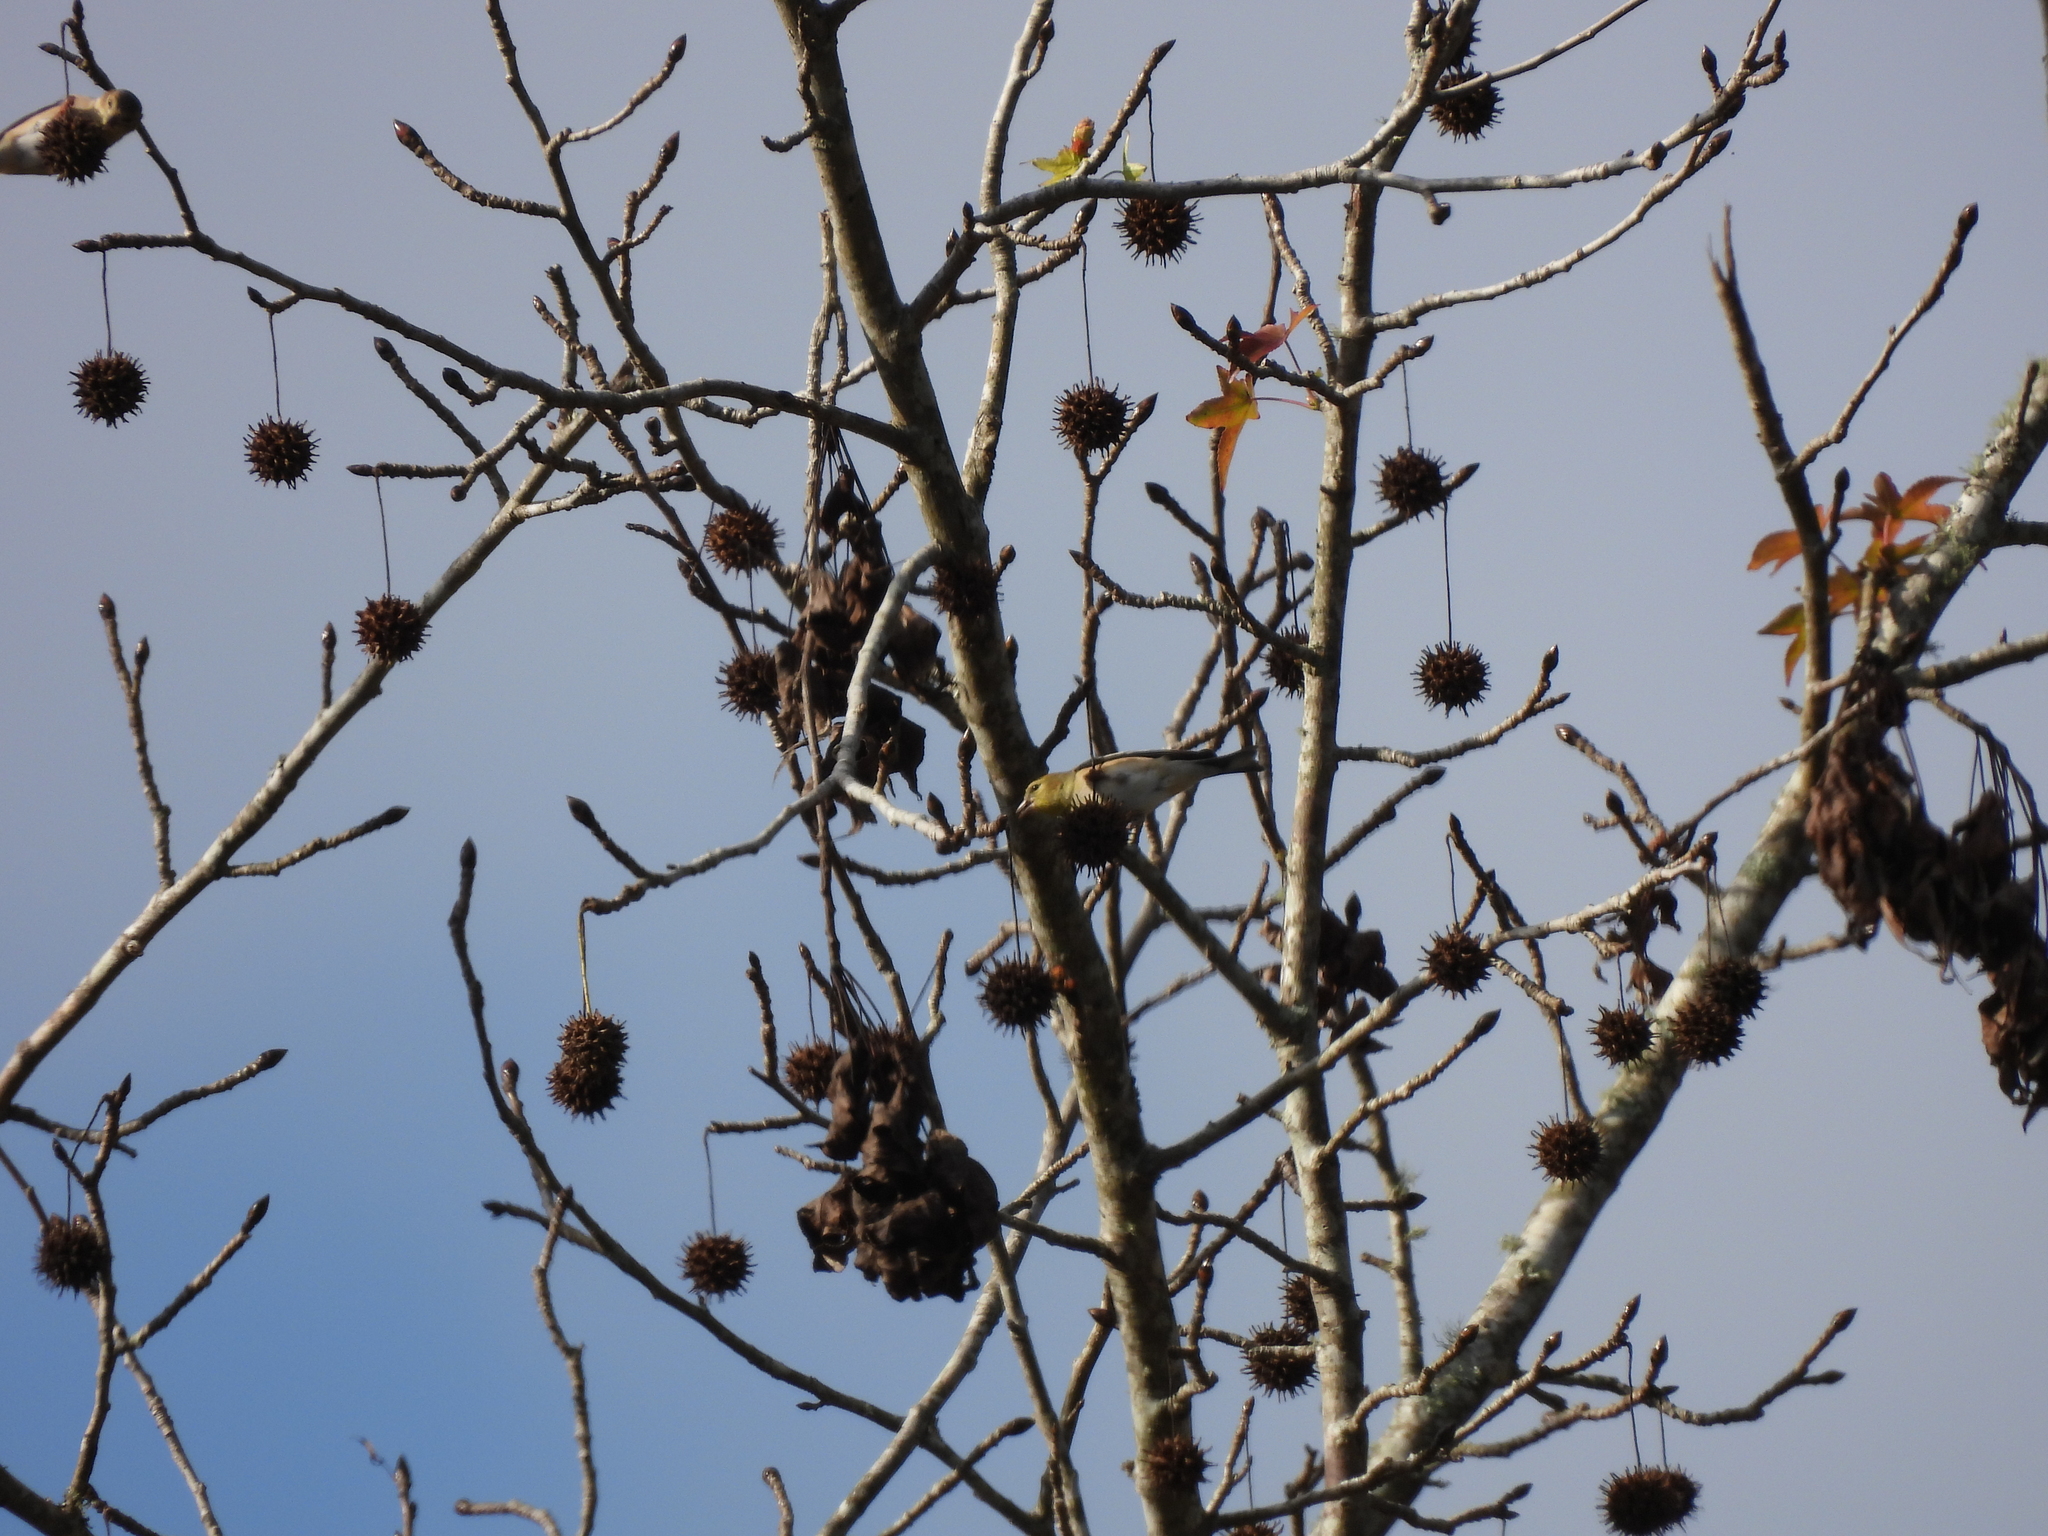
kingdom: Animalia
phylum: Chordata
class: Aves
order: Passeriformes
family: Fringillidae
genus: Spinus
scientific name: Spinus tristis
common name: American goldfinch
